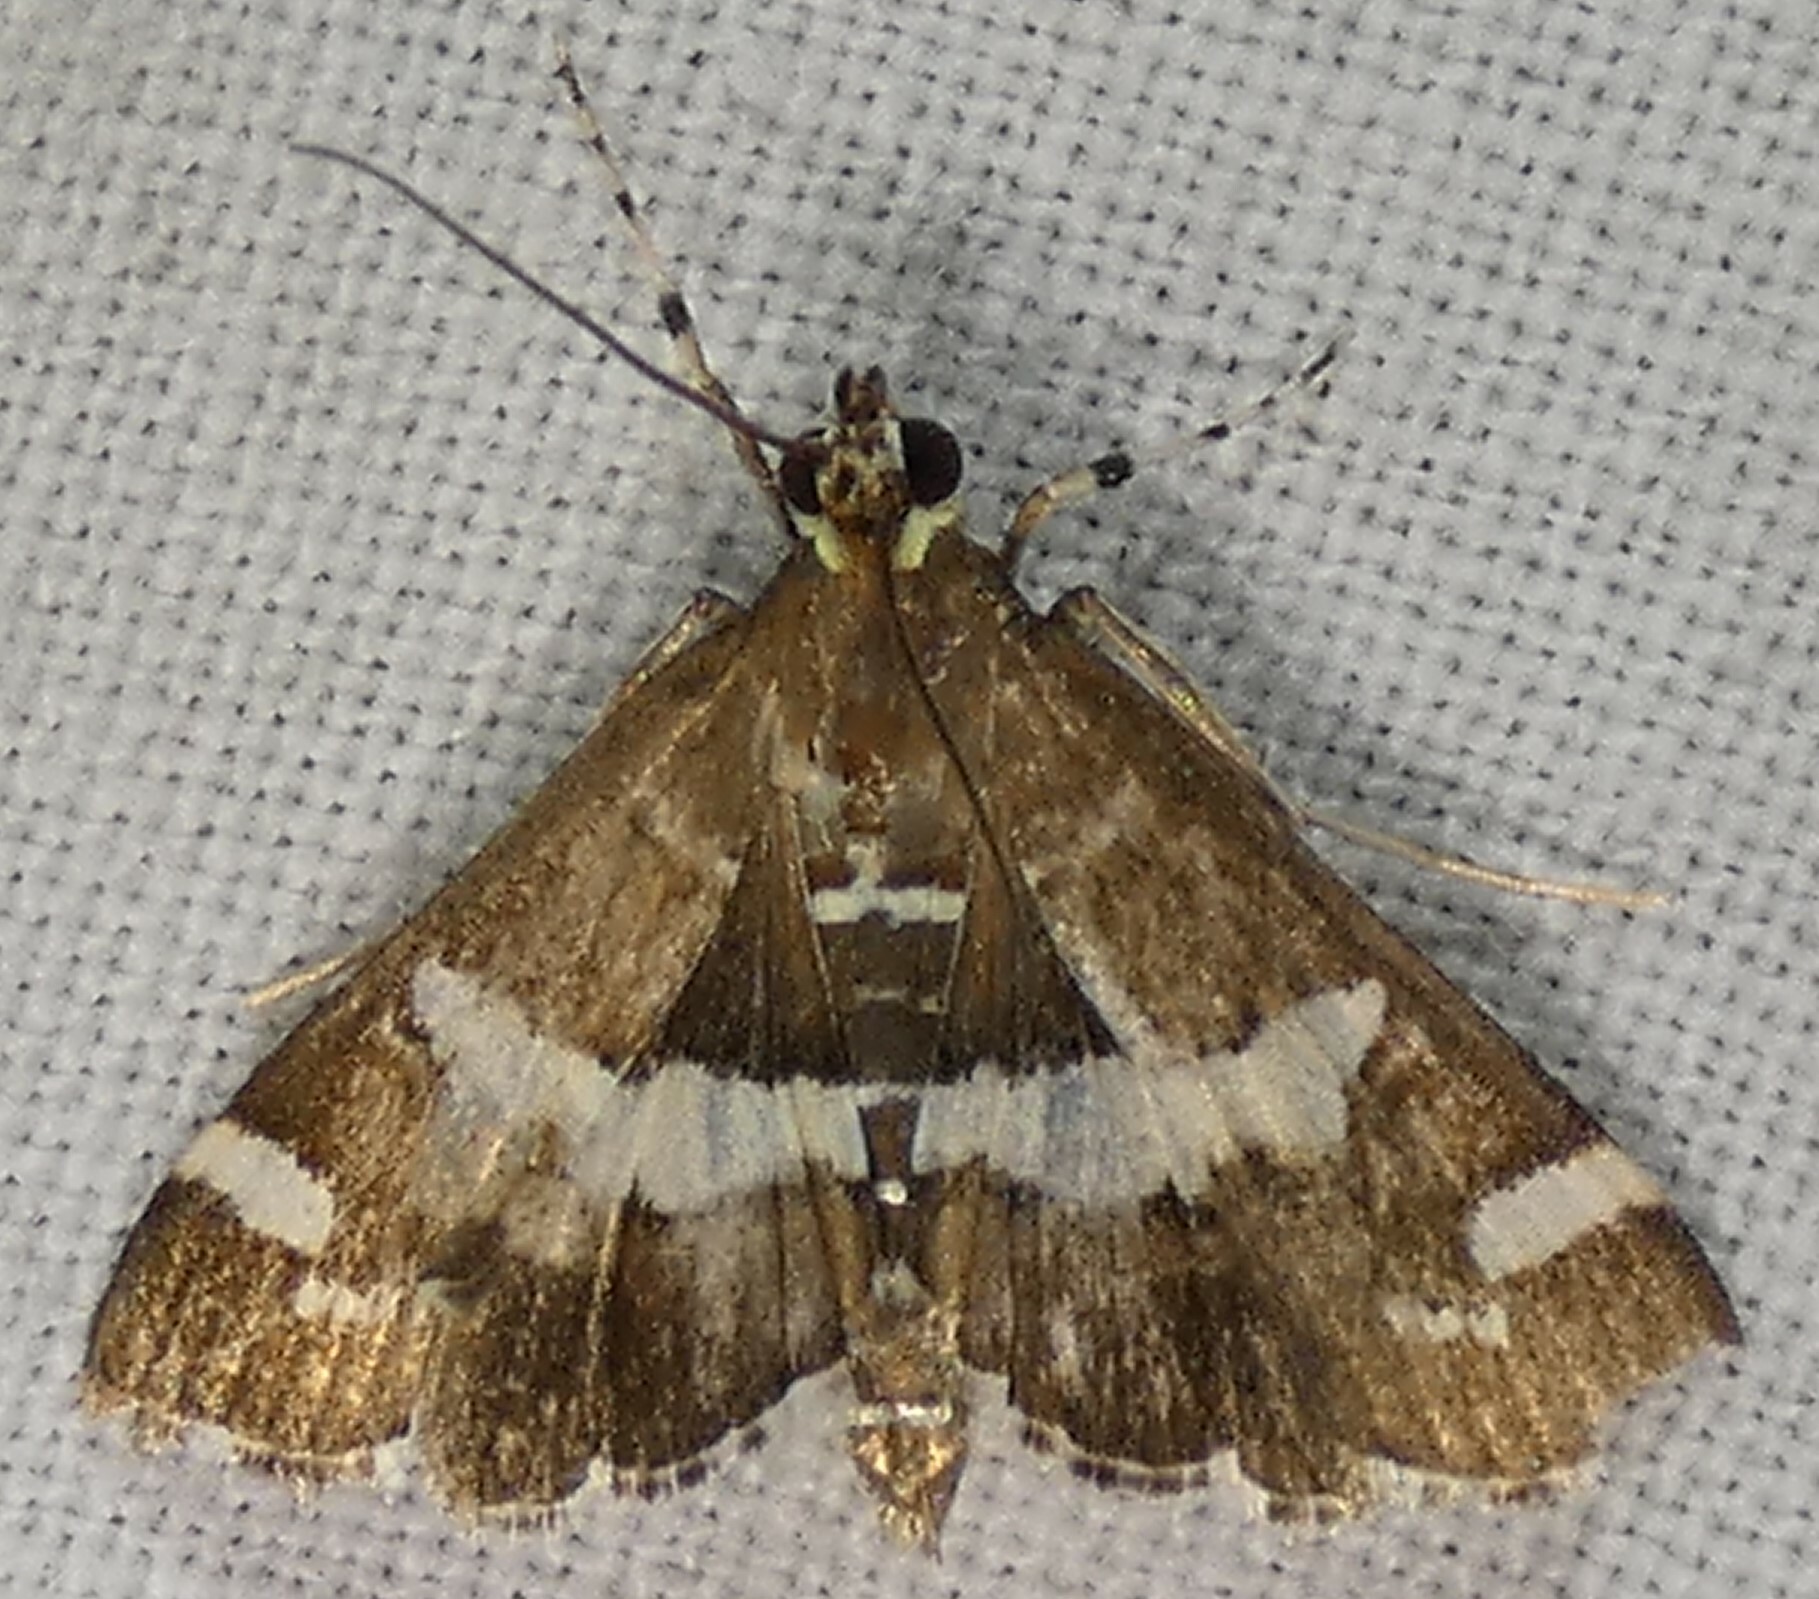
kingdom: Animalia
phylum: Arthropoda
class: Insecta
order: Lepidoptera
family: Crambidae
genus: Spoladea
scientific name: Spoladea recurvalis
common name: Beet webworm moth
